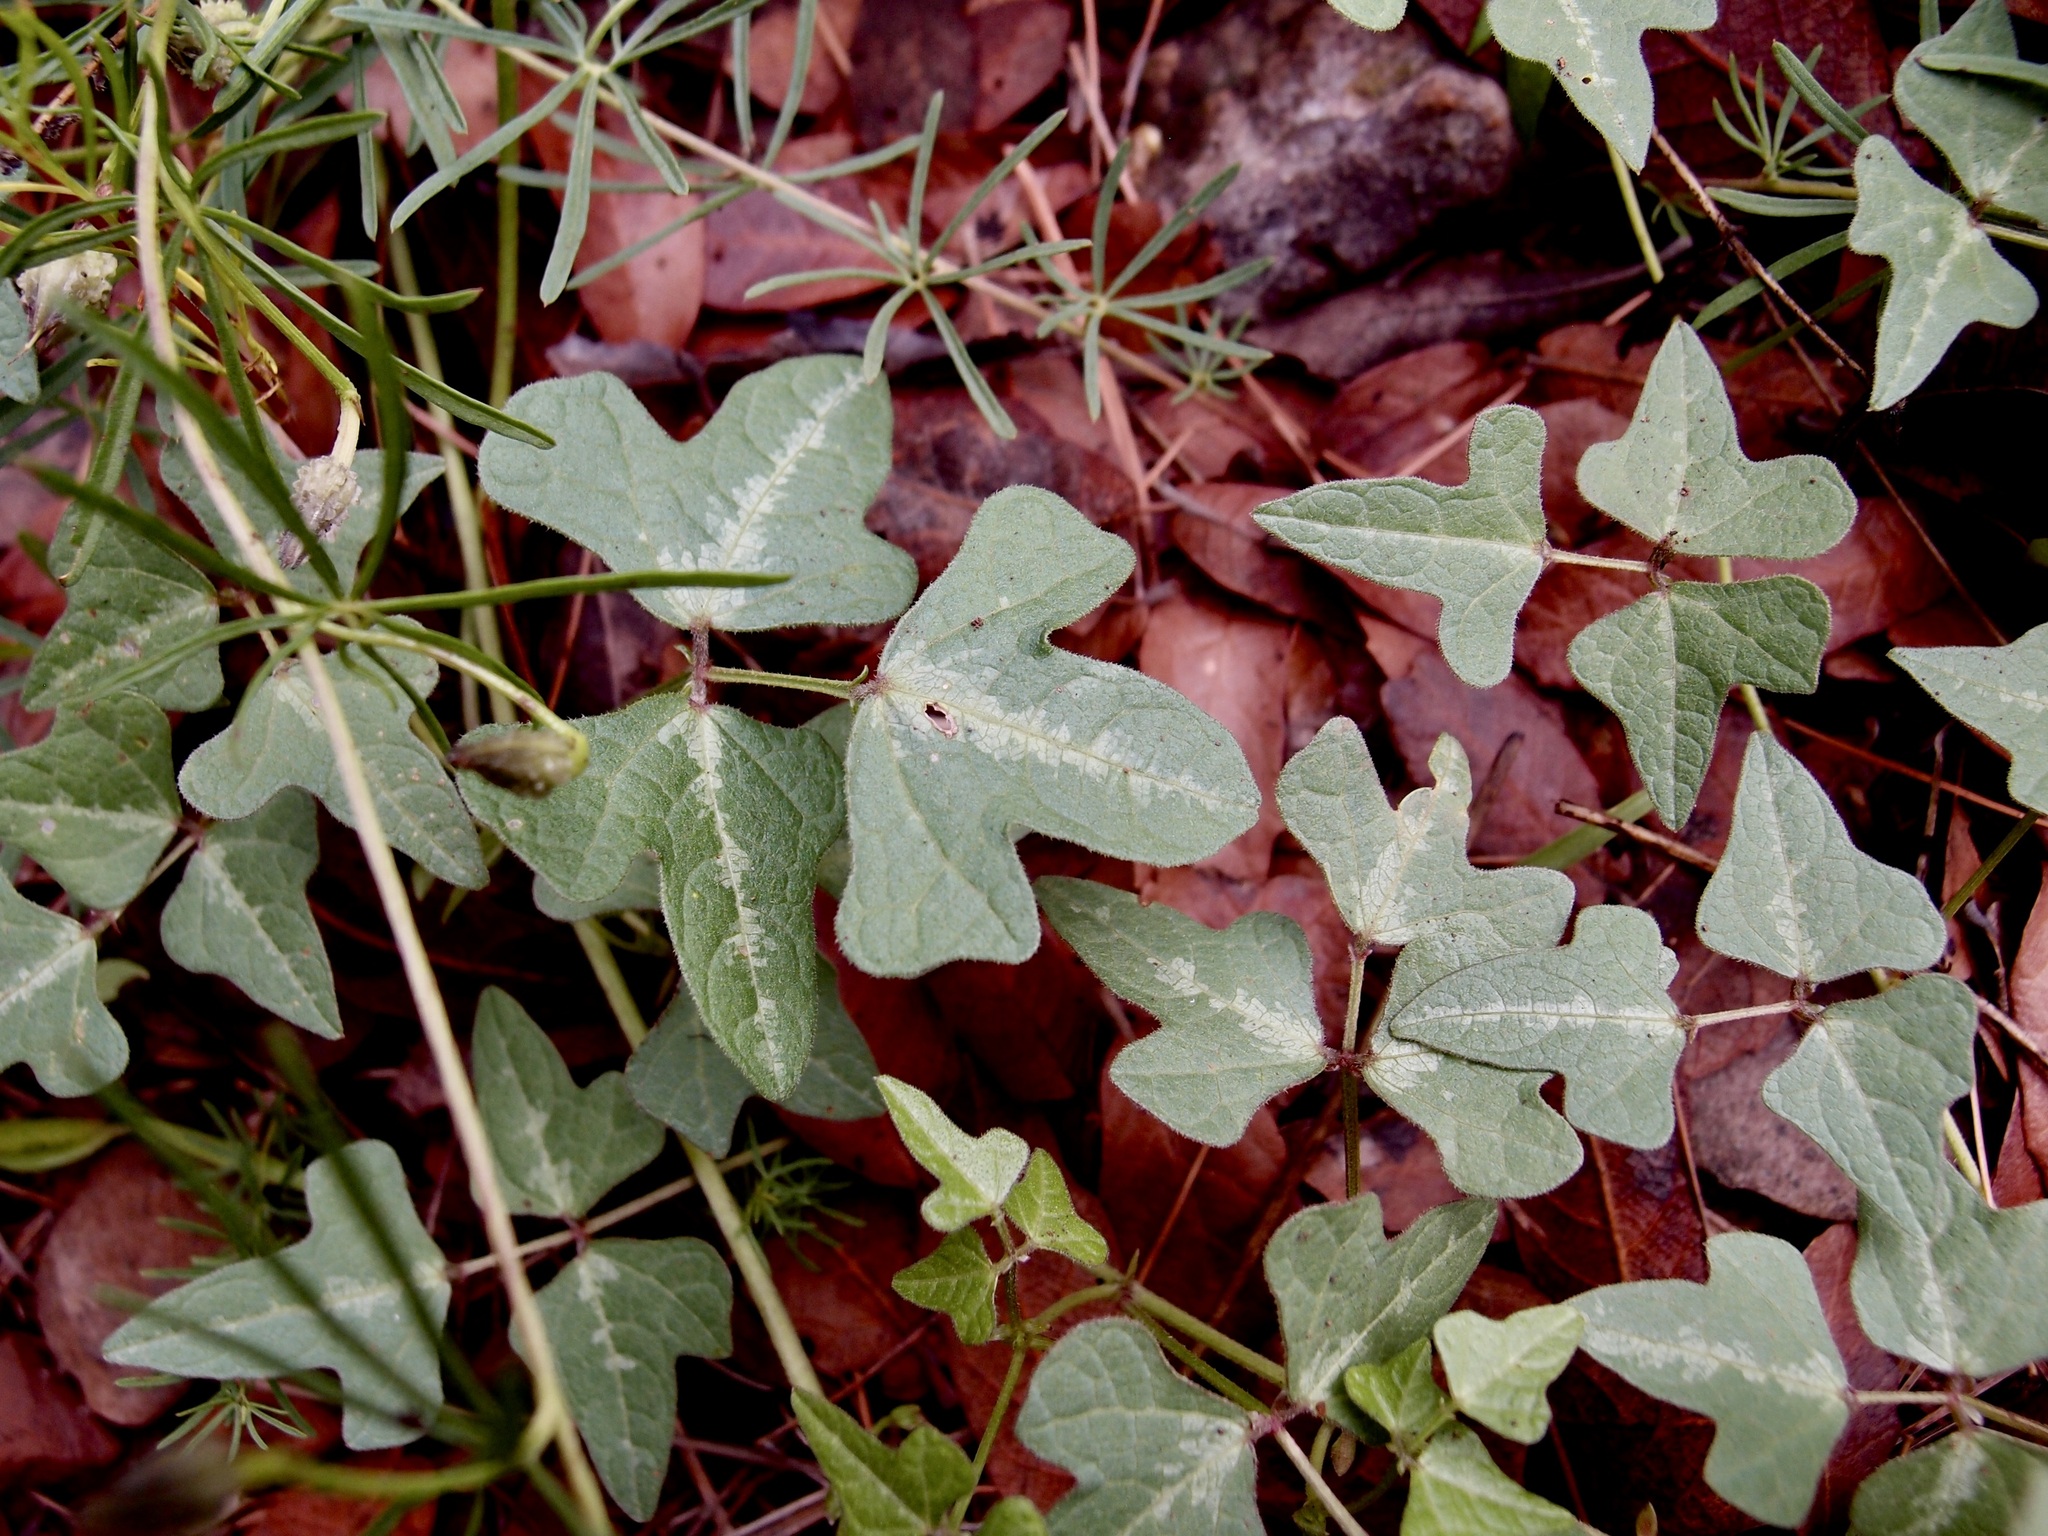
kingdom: Plantae
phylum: Tracheophyta
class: Magnoliopsida
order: Fabales
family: Fabaceae
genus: Phaseolus
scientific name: Phaseolus pedicellatus
